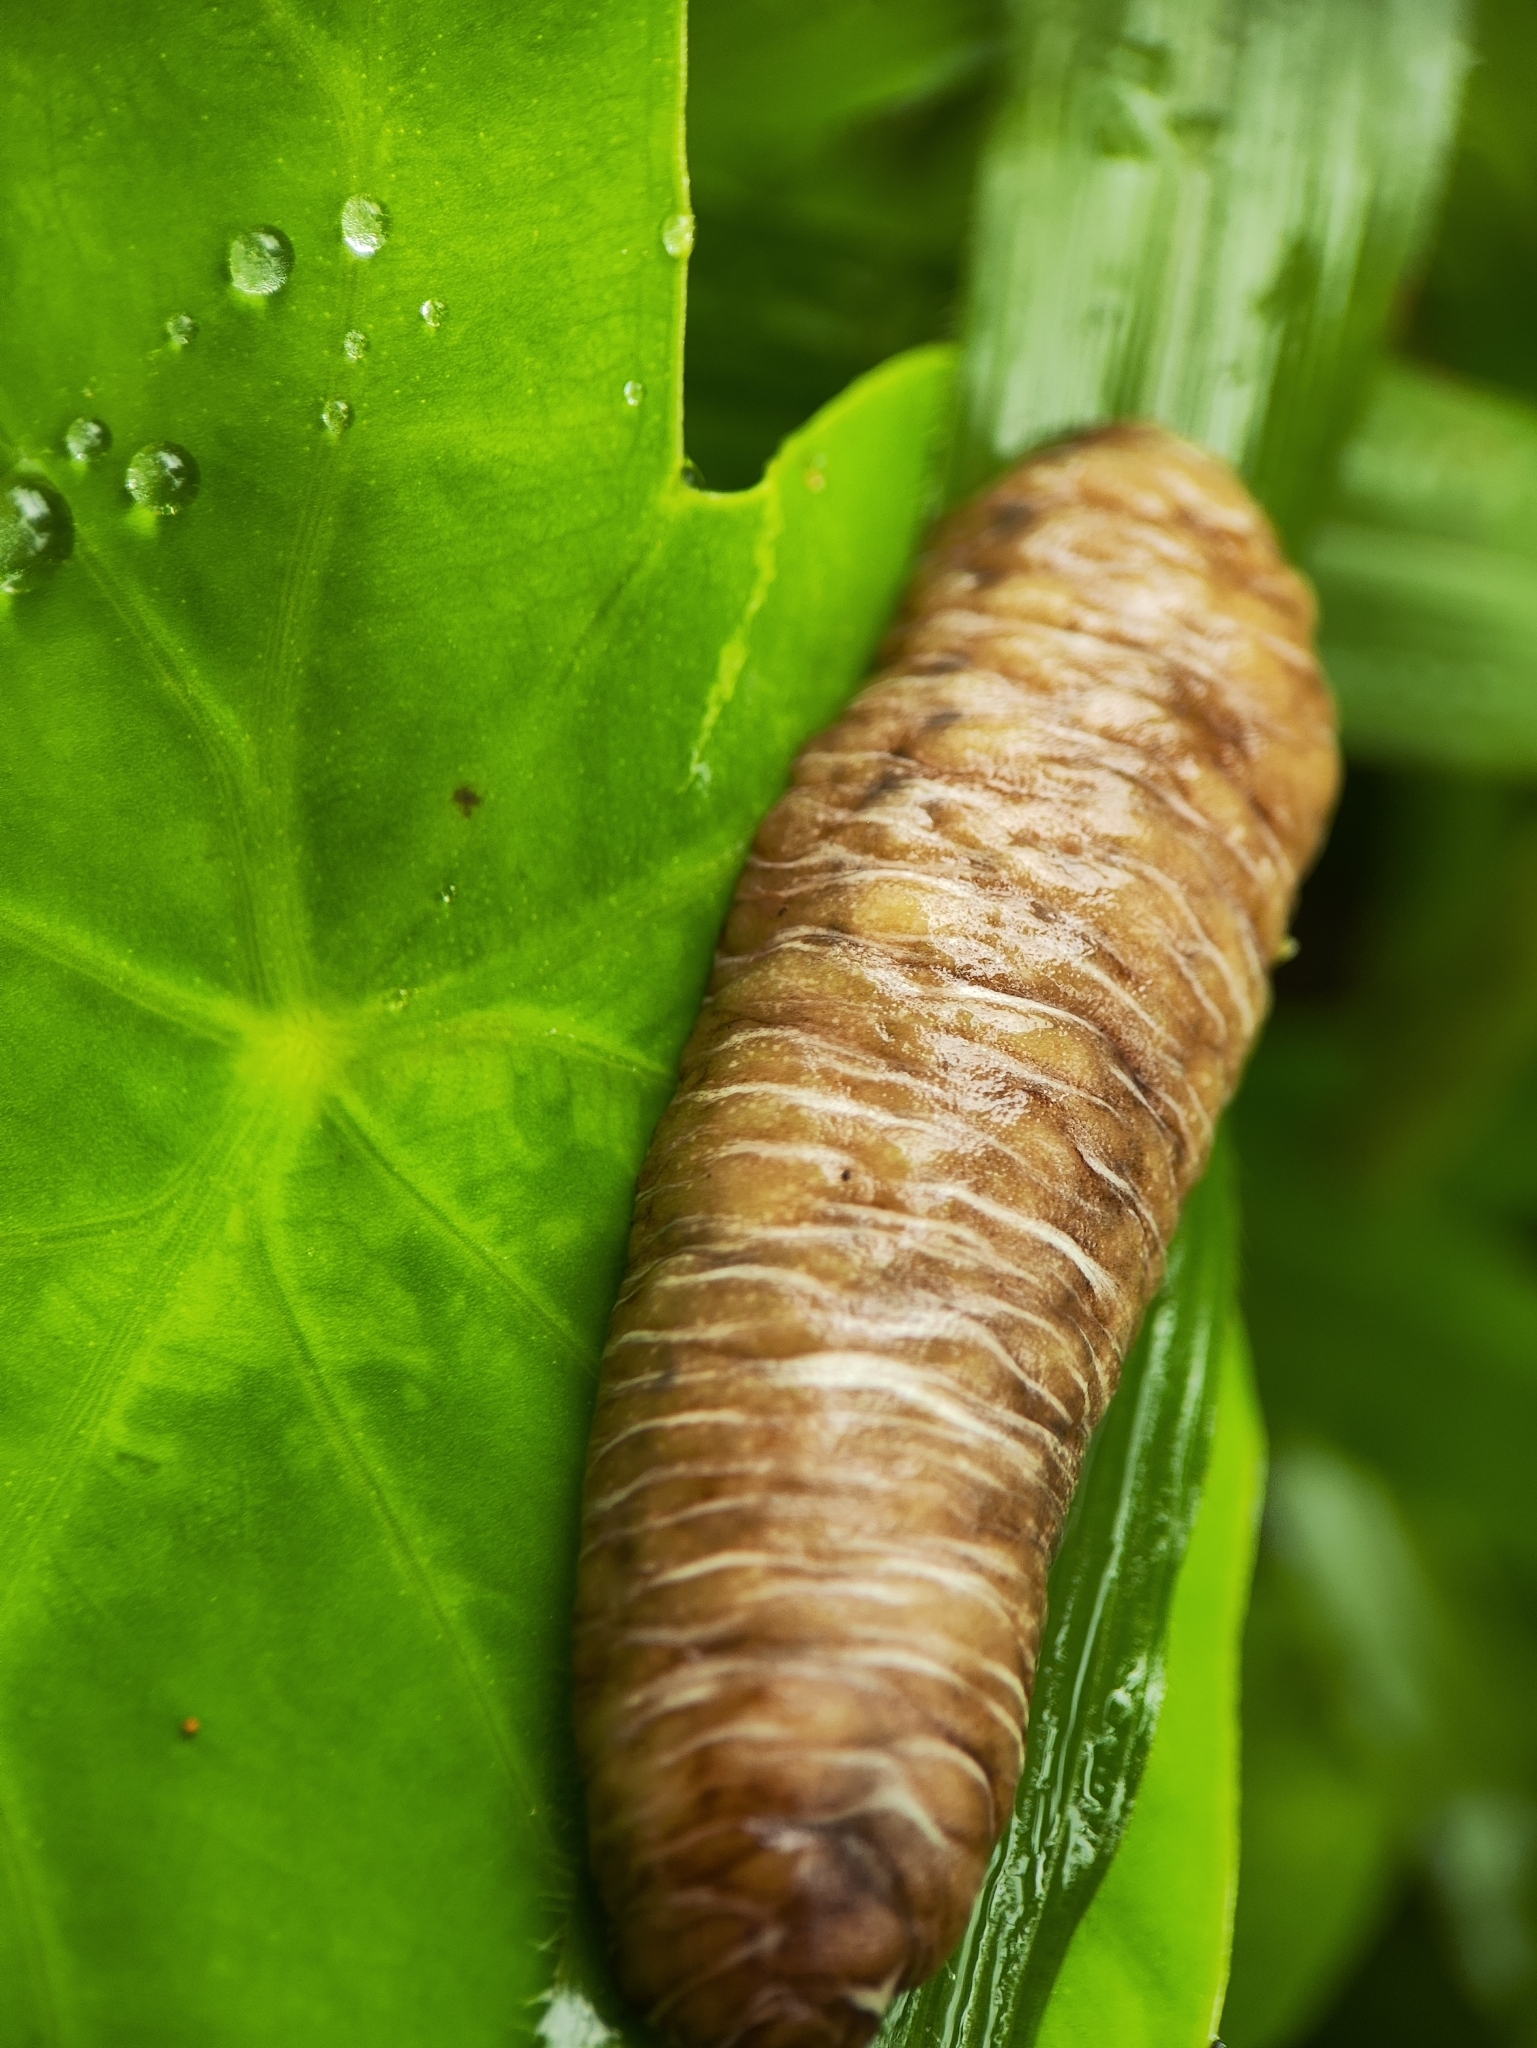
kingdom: Animalia
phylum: Mollusca
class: Gastropoda
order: Systellommatophora
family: Veronicellidae
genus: Laevicaulis
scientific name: Laevicaulis haroldi
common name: Caterpillar slug
